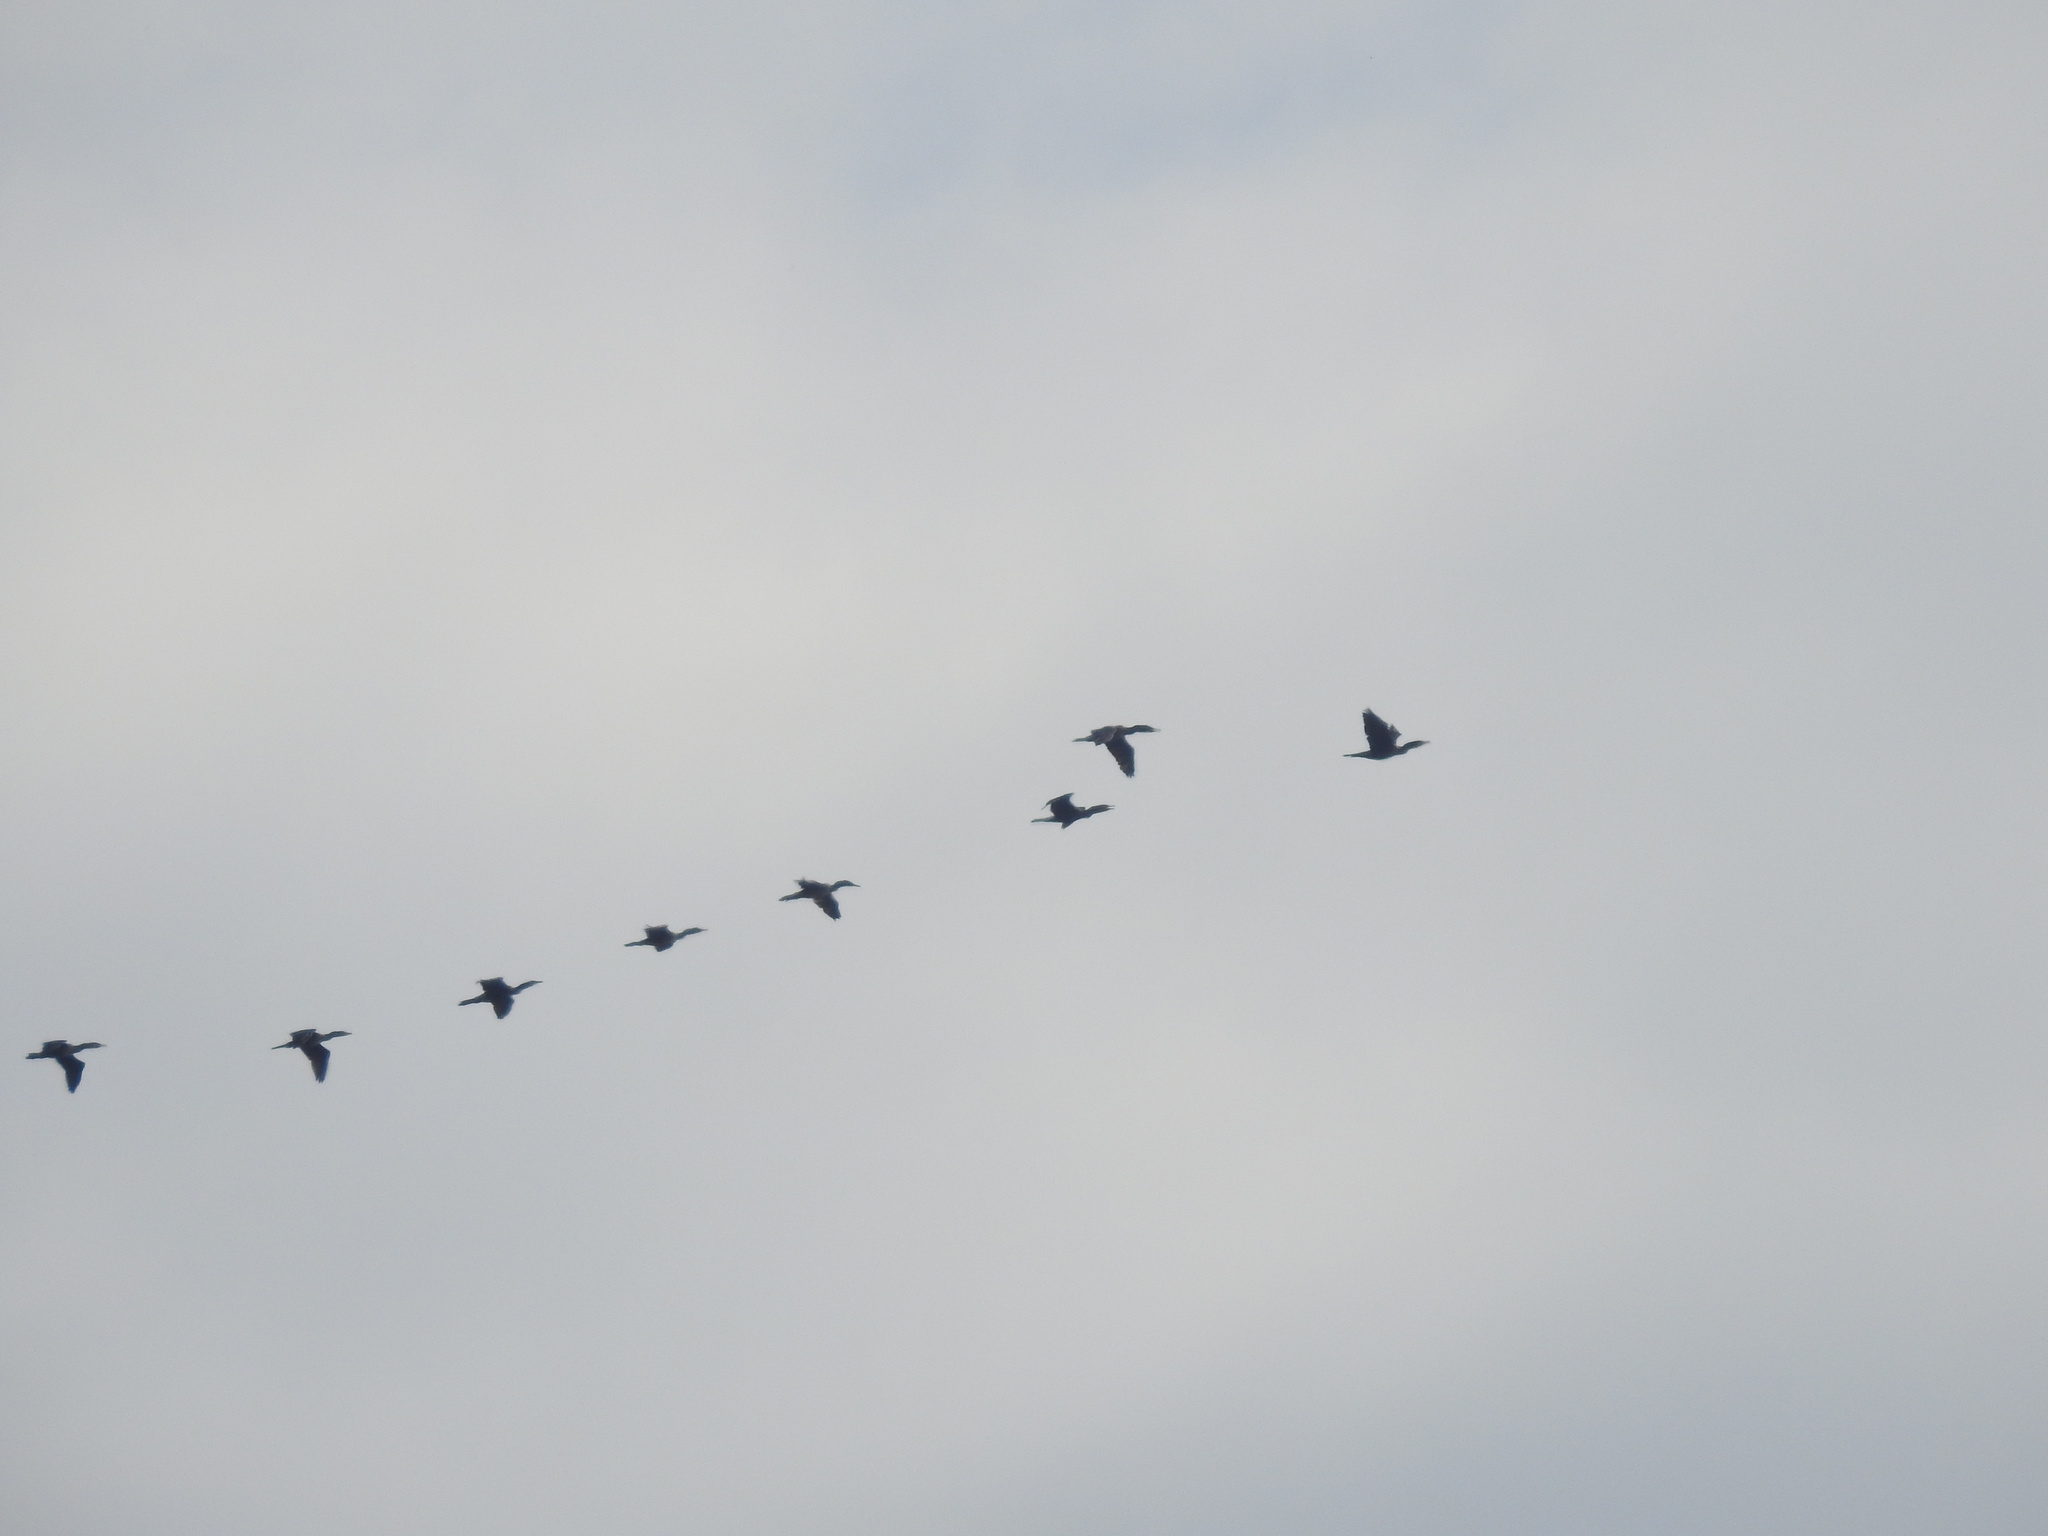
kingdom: Animalia
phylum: Chordata
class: Aves
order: Suliformes
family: Phalacrocoracidae
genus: Phalacrocorax
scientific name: Phalacrocorax auritus
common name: Double-crested cormorant
